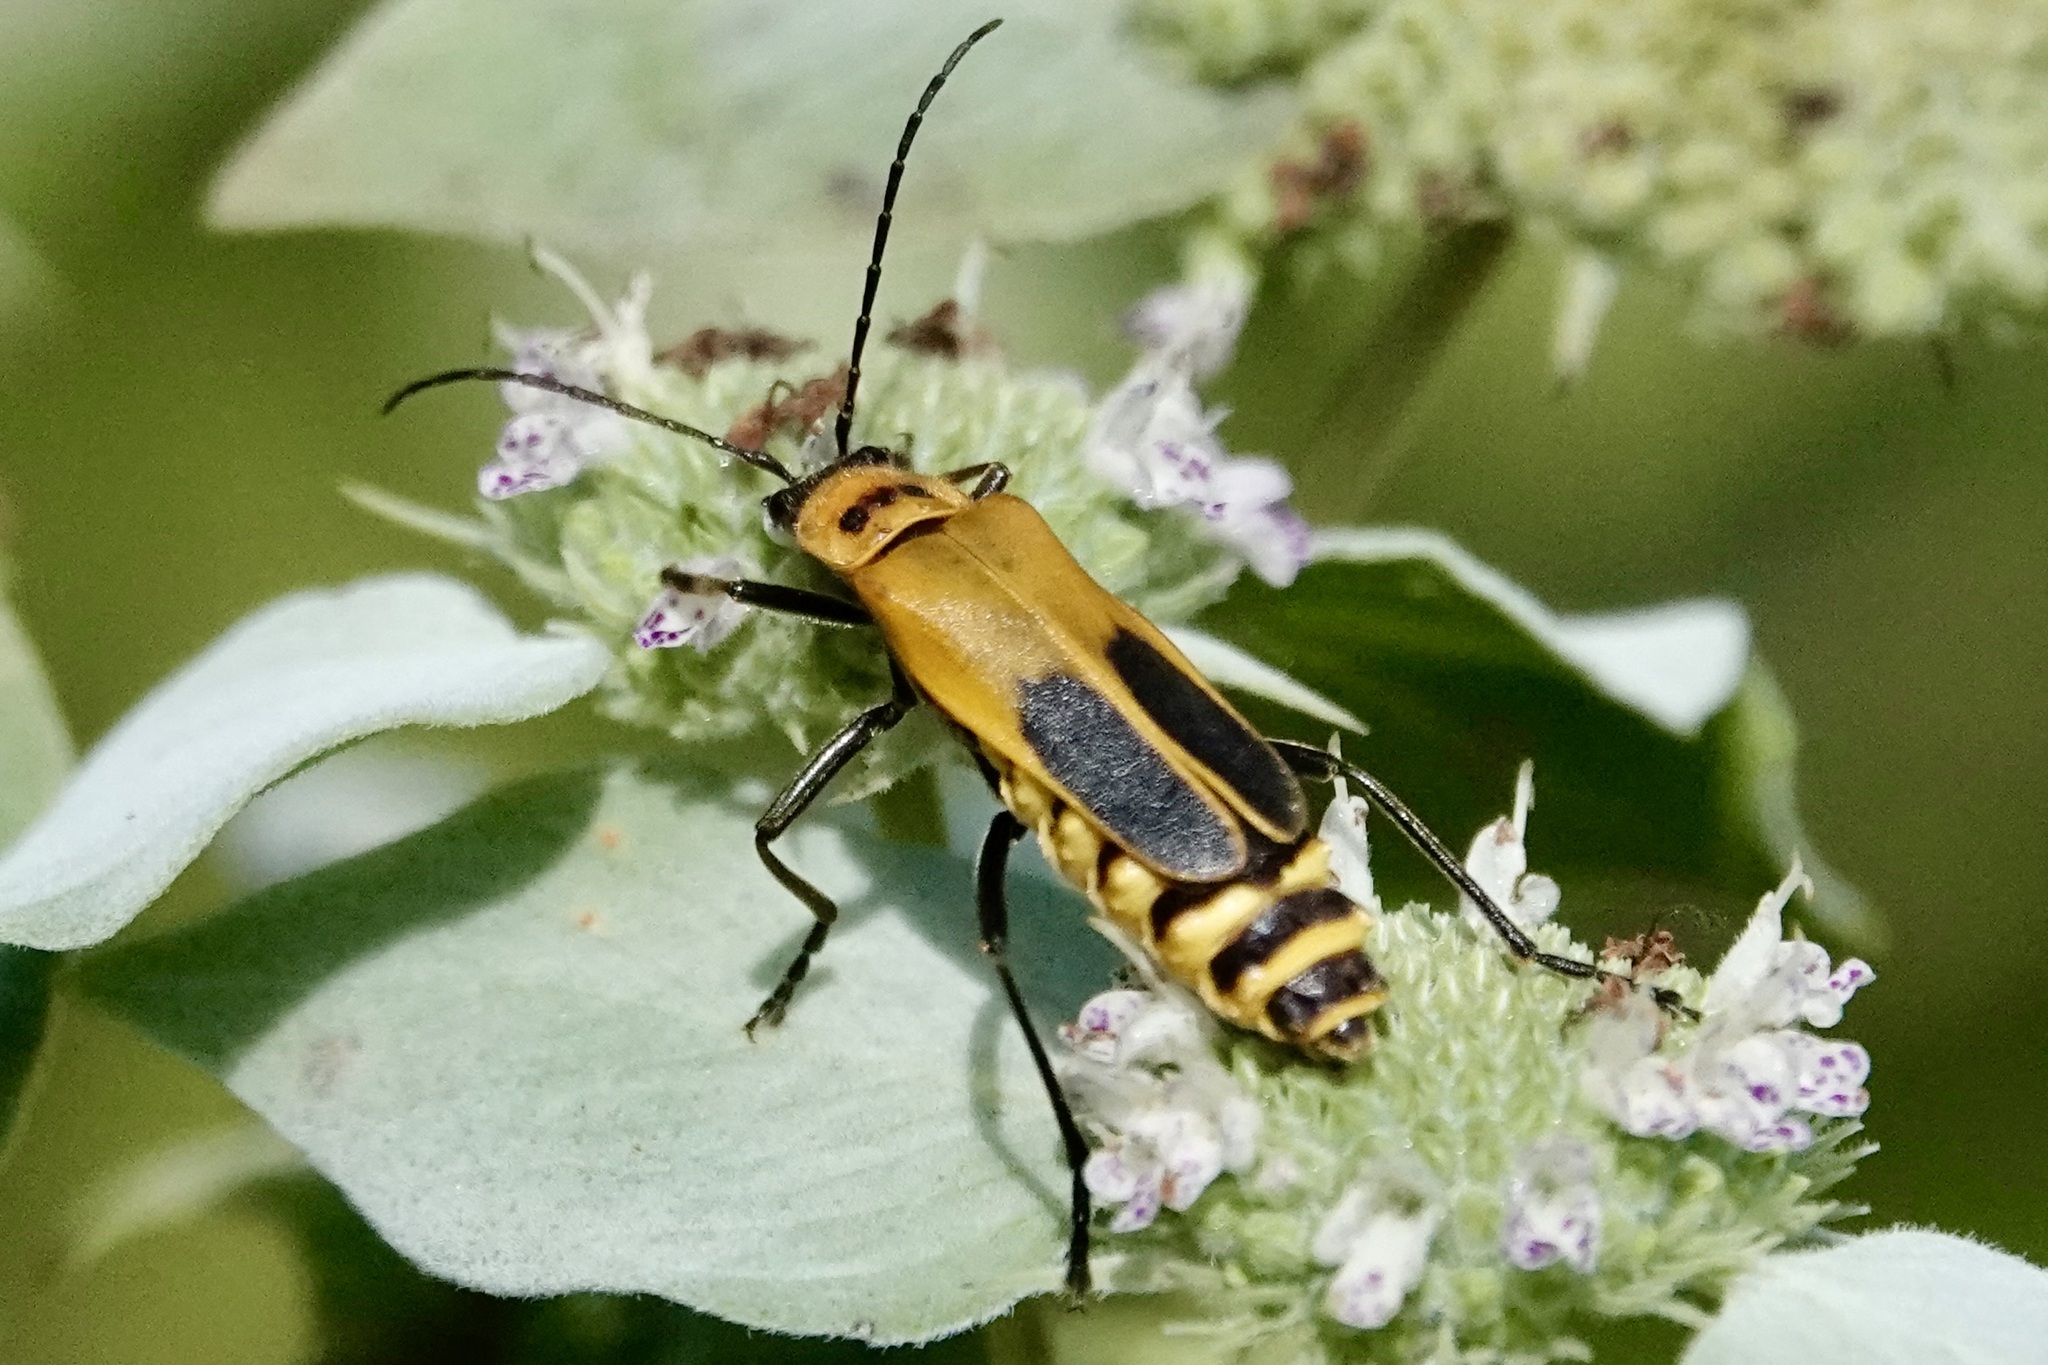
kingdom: Animalia
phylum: Arthropoda
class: Insecta
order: Coleoptera
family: Cantharidae
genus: Chauliognathus
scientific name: Chauliognathus pensylvanicus
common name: Goldenrod soldier beetle
